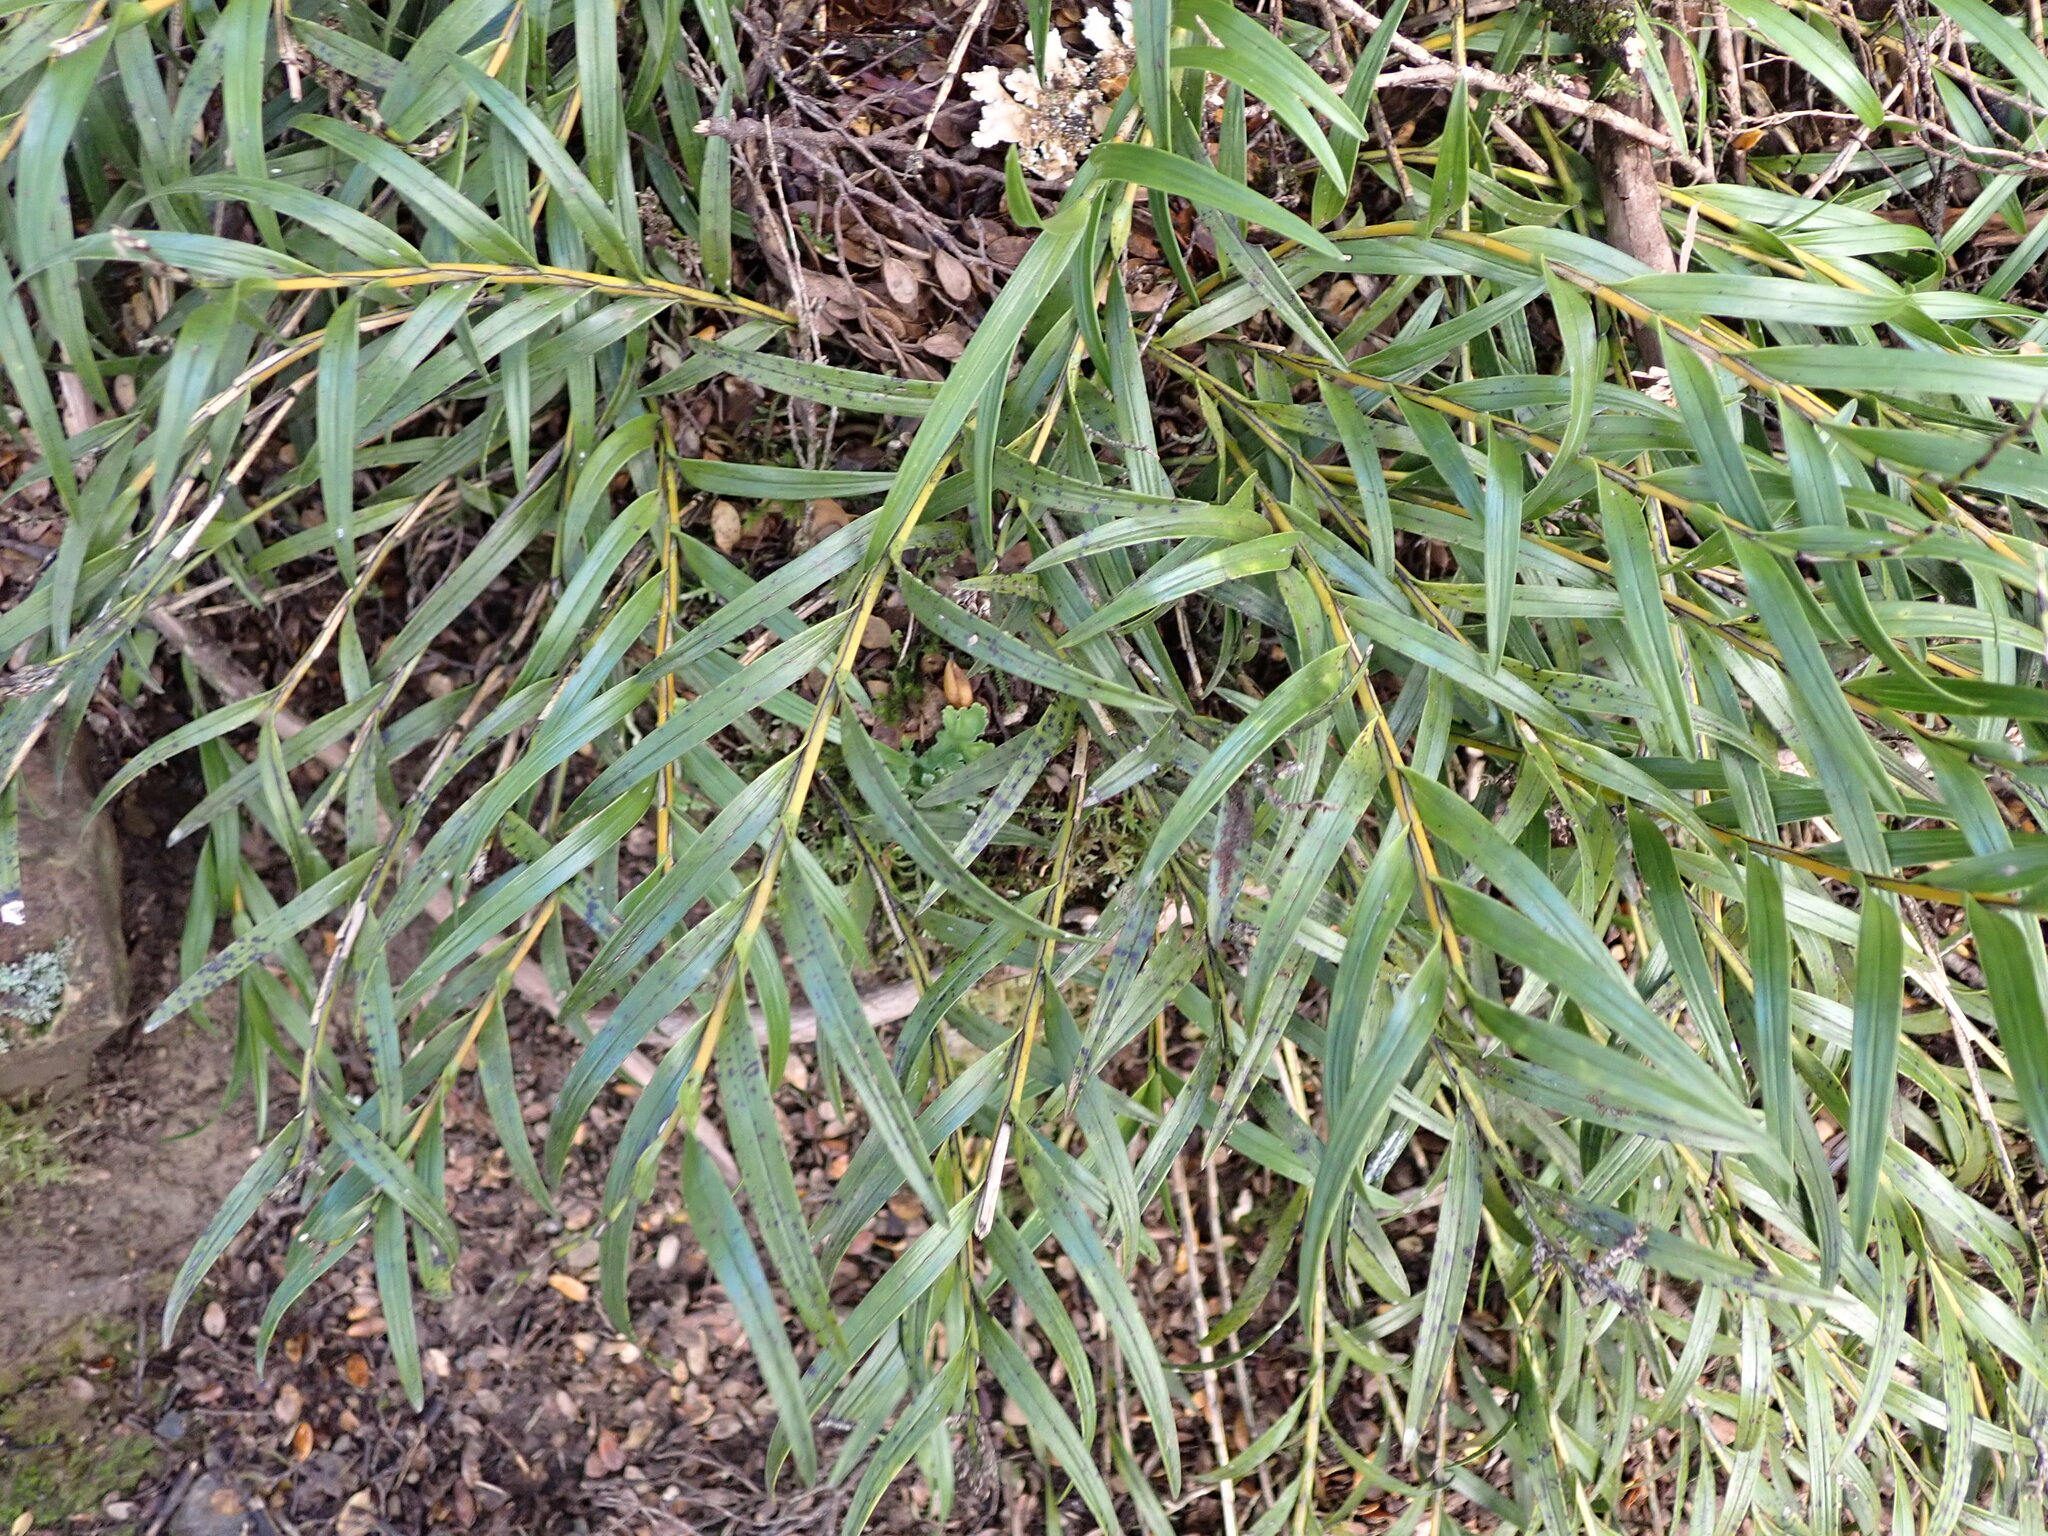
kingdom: Plantae
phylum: Tracheophyta
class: Liliopsida
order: Asparagales
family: Orchidaceae
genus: Earina
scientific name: Earina autumnalis
